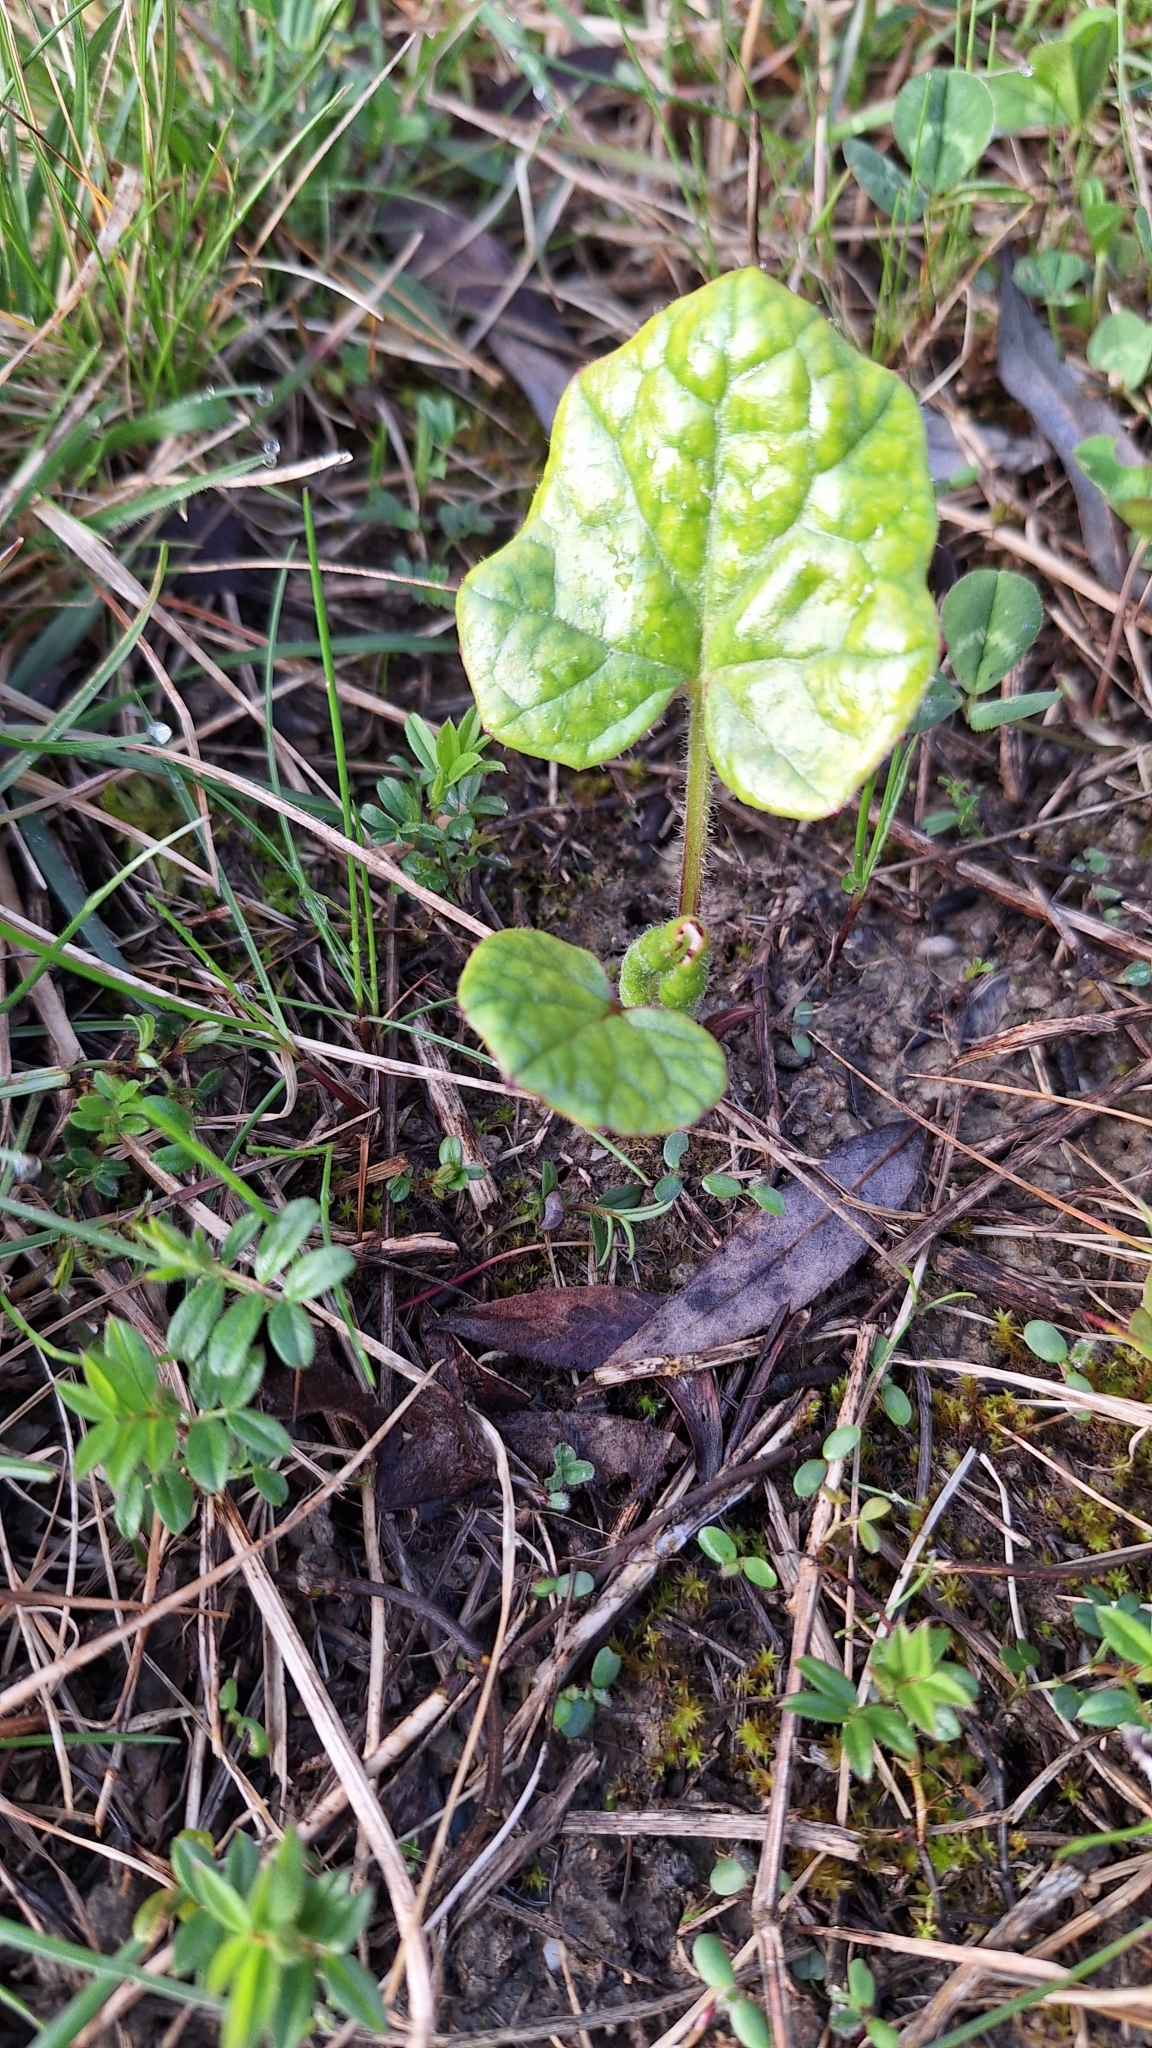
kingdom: Plantae
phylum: Tracheophyta
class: Magnoliopsida
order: Asterales
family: Asteraceae
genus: Tussilago
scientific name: Tussilago farfara
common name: Coltsfoot
